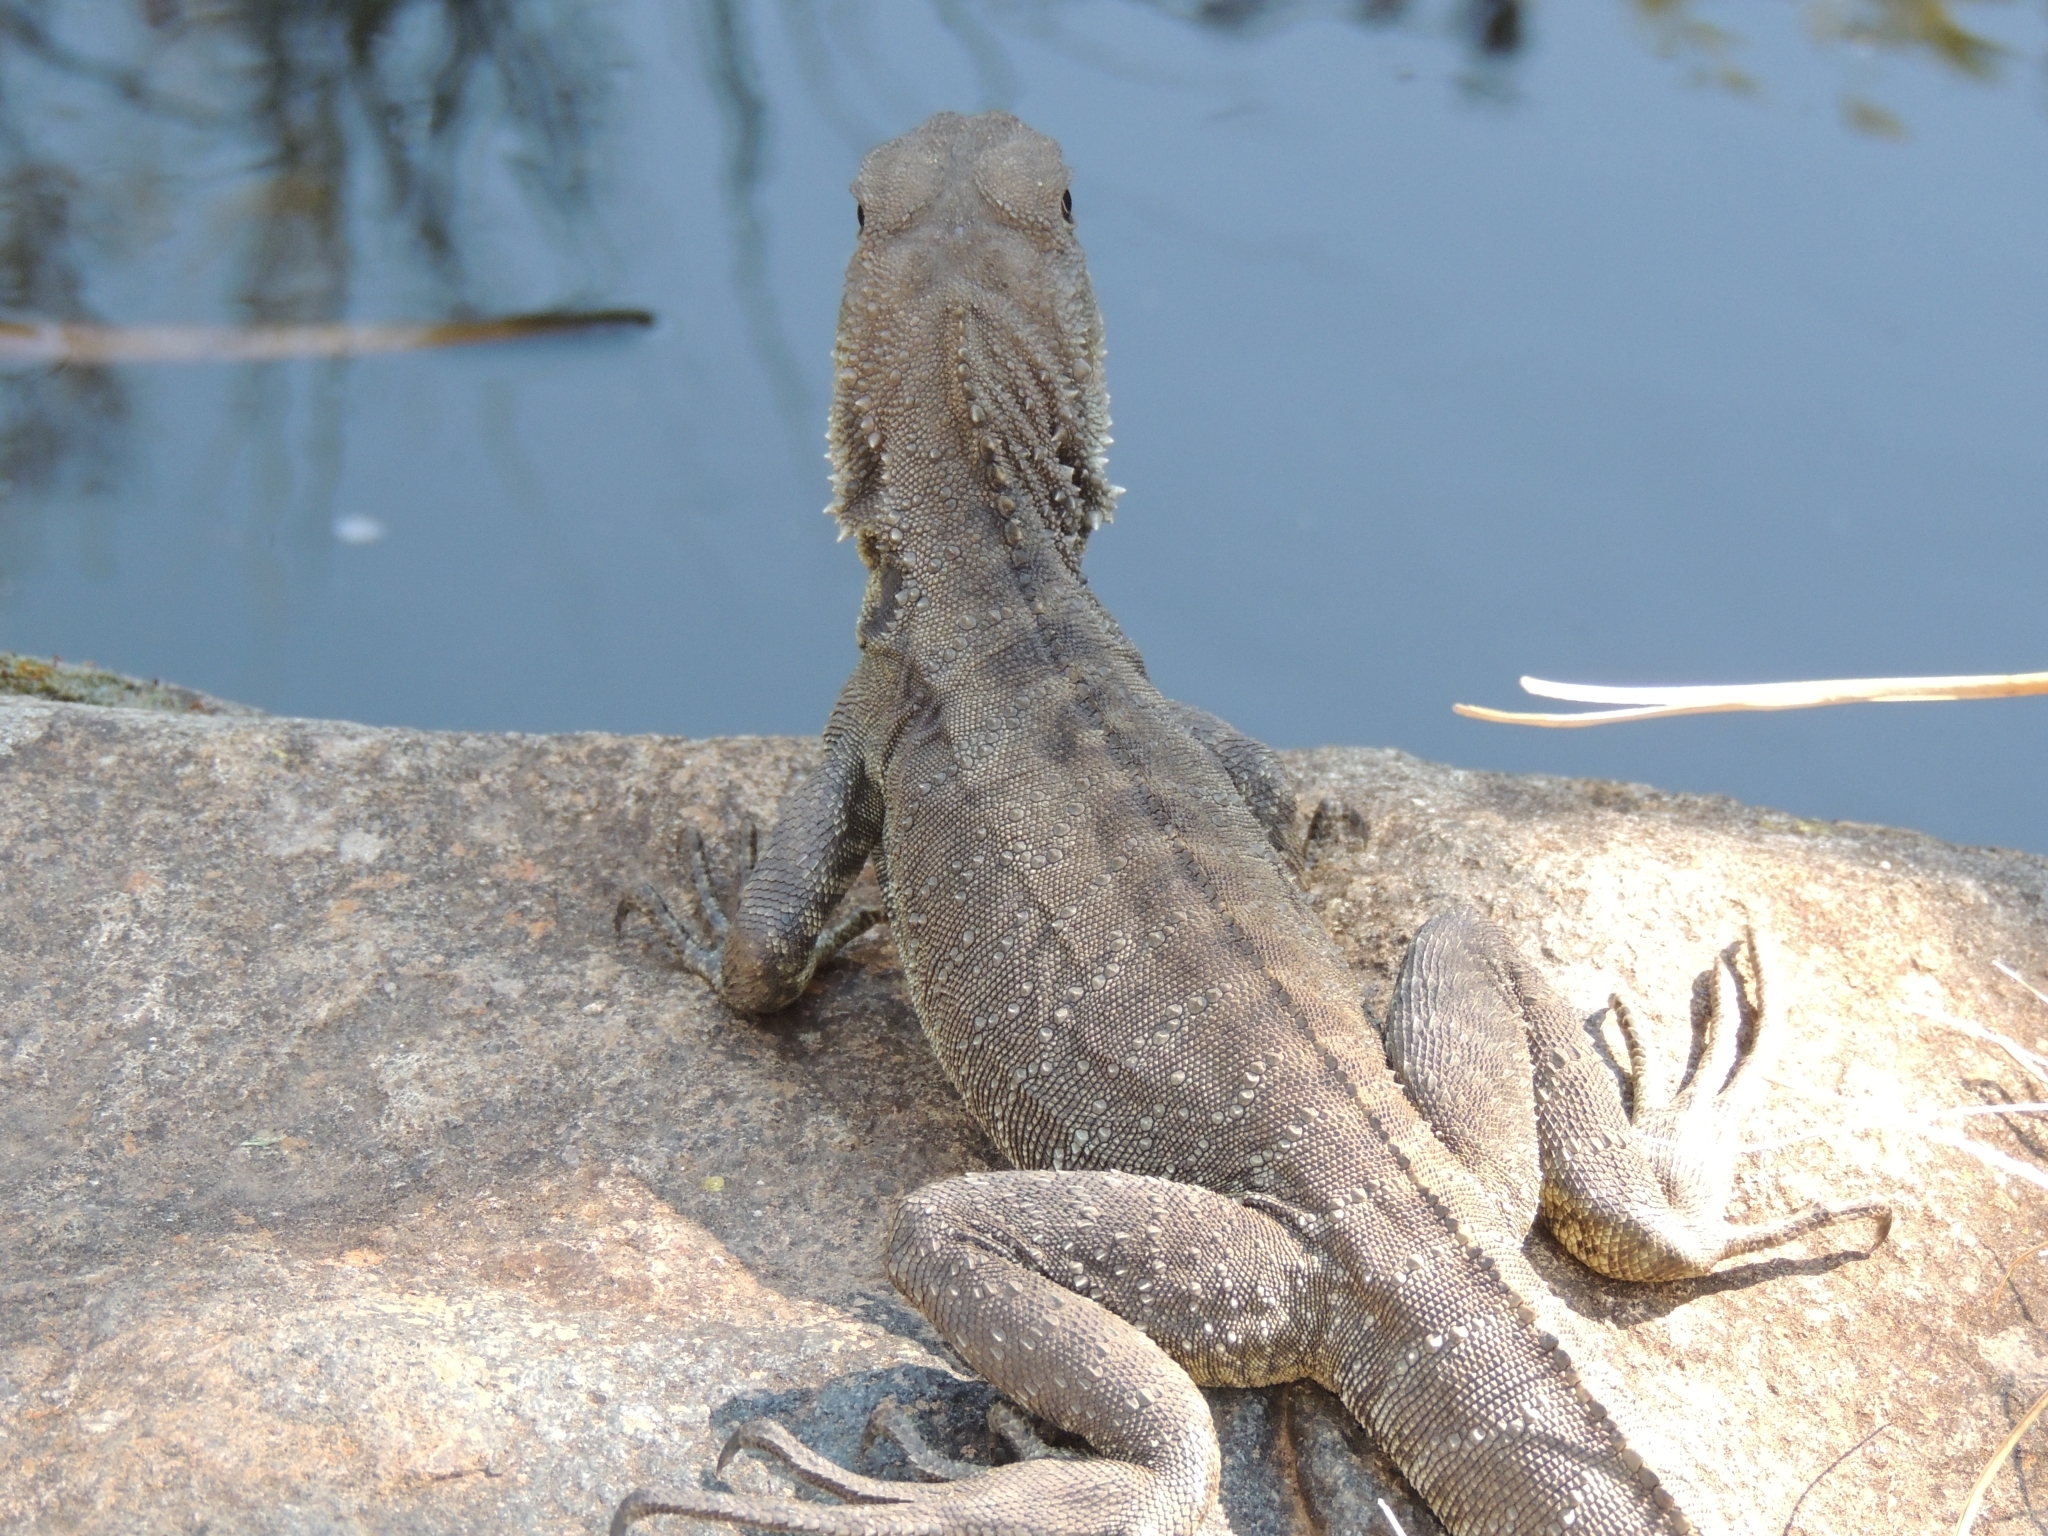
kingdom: Animalia
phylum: Chordata
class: Squamata
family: Agamidae
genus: Intellagama
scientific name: Intellagama lesueurii
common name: Eastern water dragon
